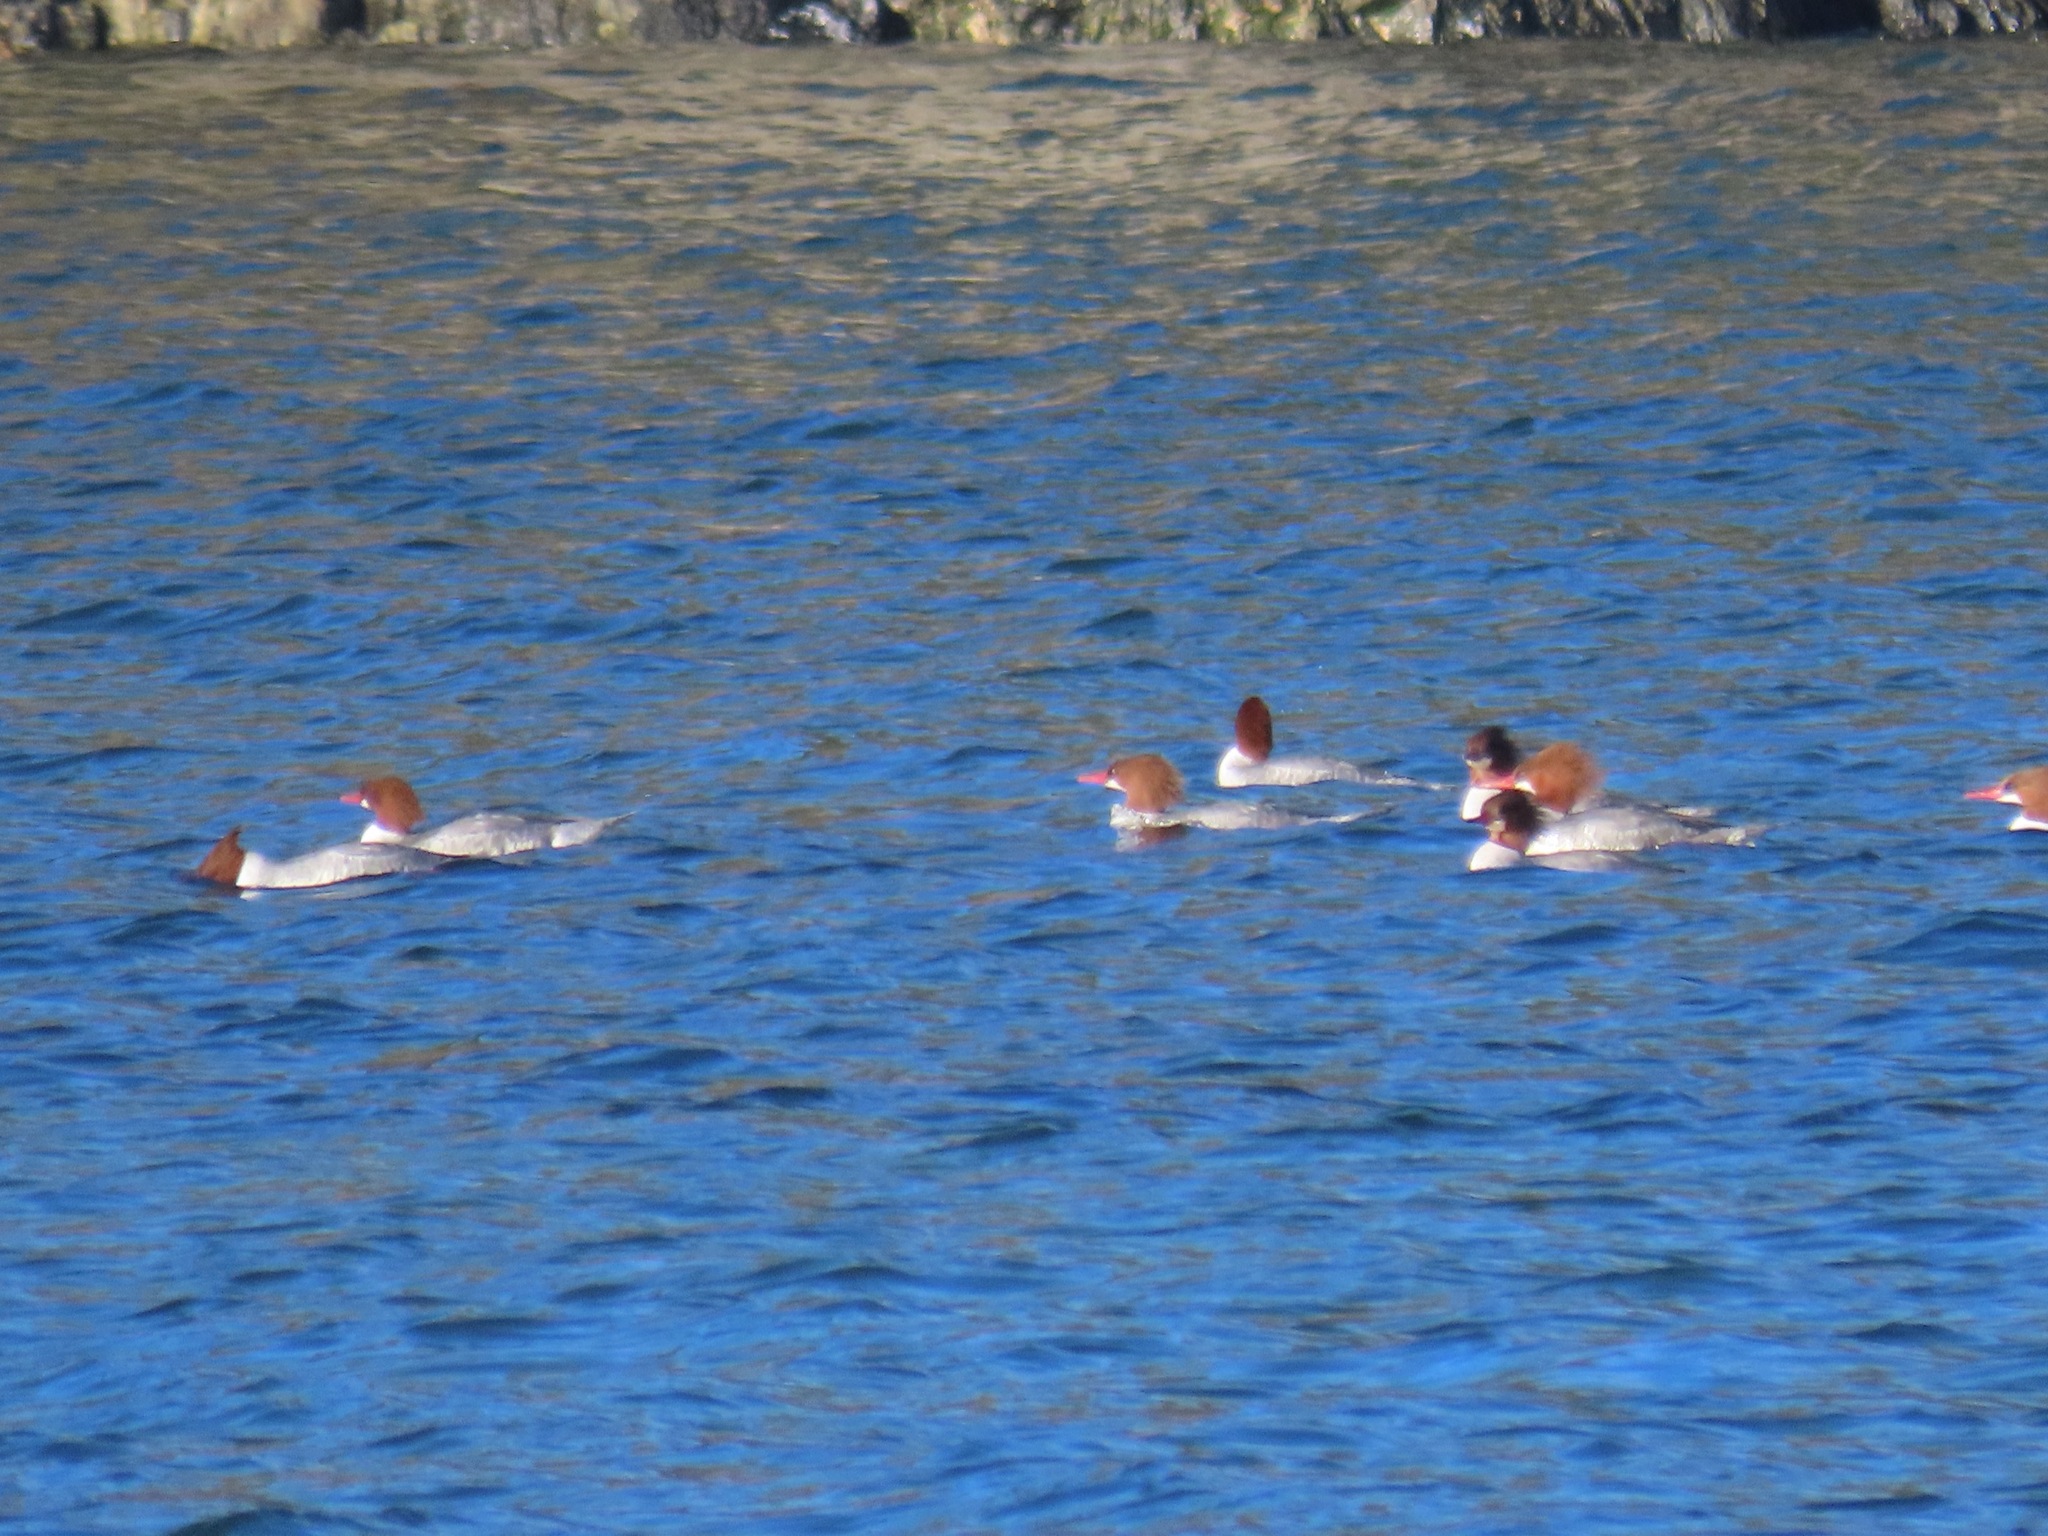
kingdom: Animalia
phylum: Chordata
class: Aves
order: Anseriformes
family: Anatidae
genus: Mergus
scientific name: Mergus merganser
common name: Common merganser
